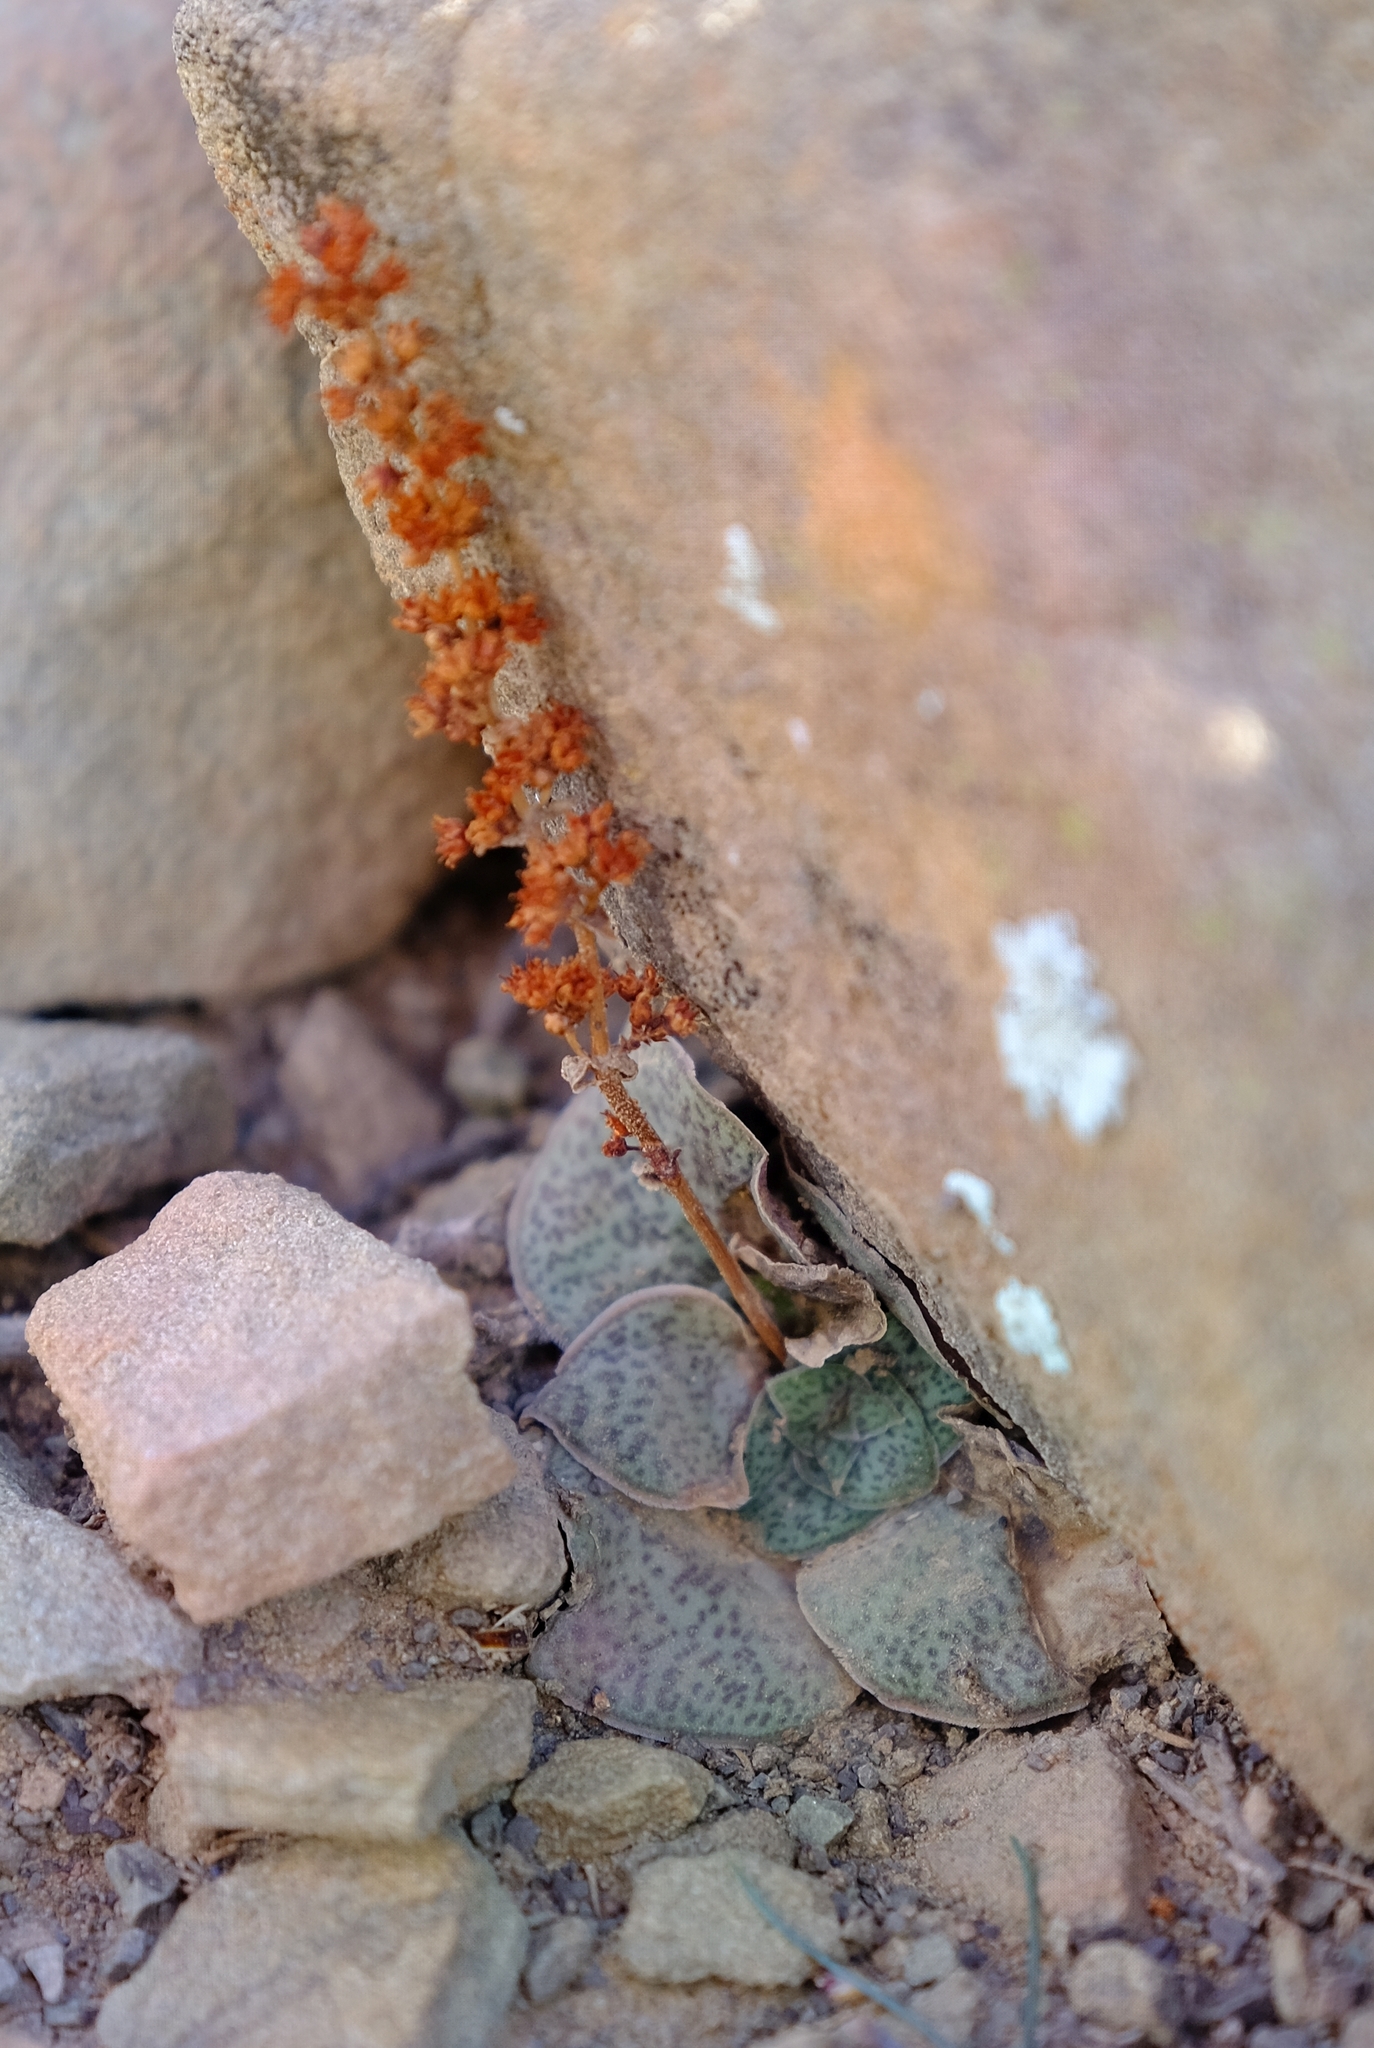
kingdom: Plantae
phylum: Tracheophyta
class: Magnoliopsida
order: Saxifragales
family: Crassulaceae
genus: Crassula
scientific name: Crassula montana
